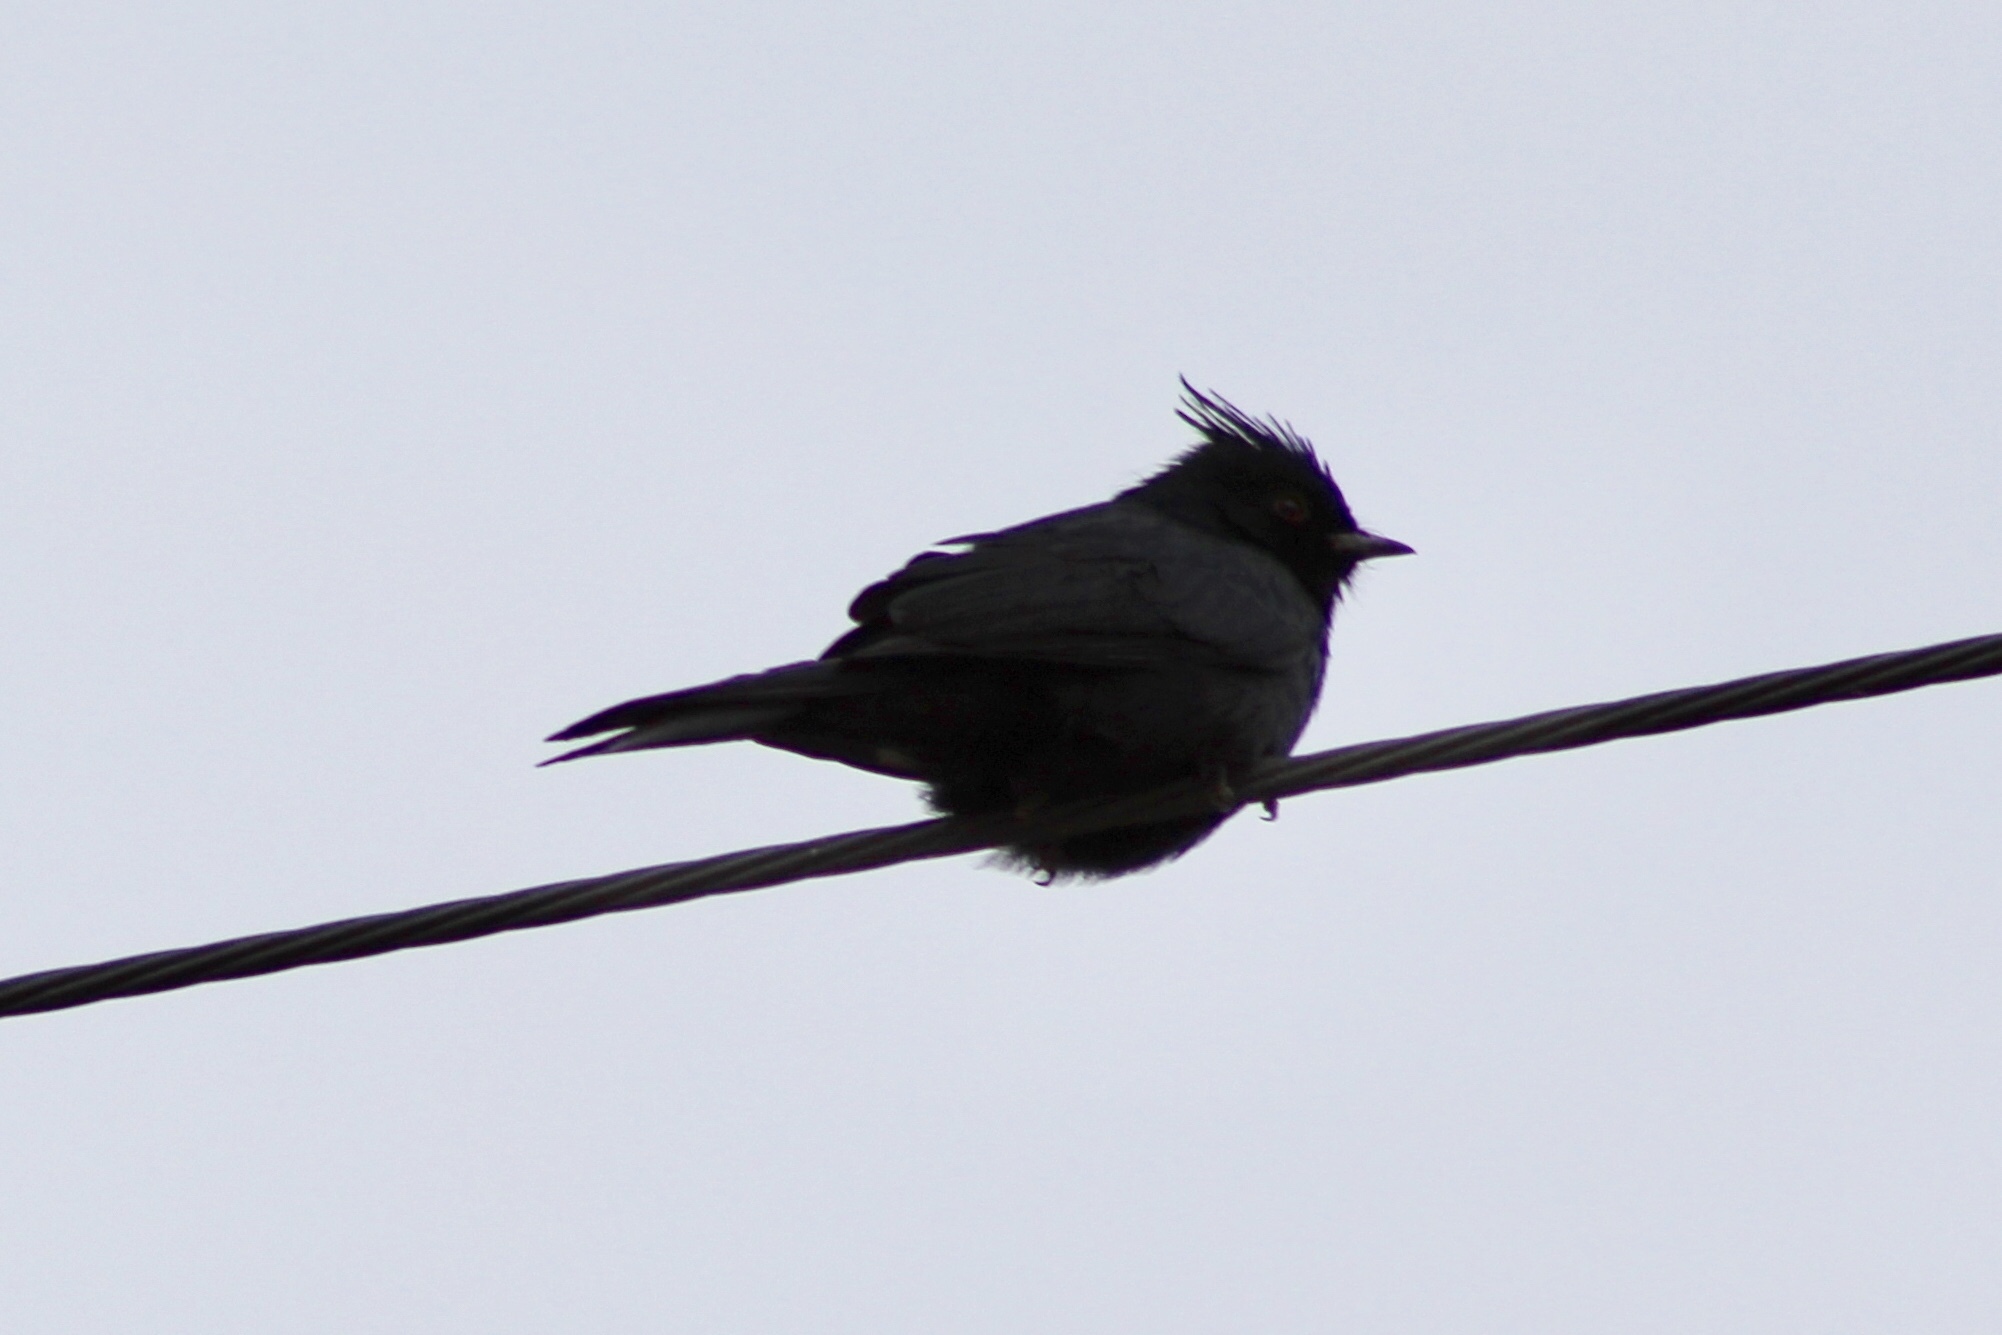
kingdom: Animalia
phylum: Chordata
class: Aves
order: Passeriformes
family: Ptilogonatidae
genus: Phainopepla
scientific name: Phainopepla nitens
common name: Phainopepla
